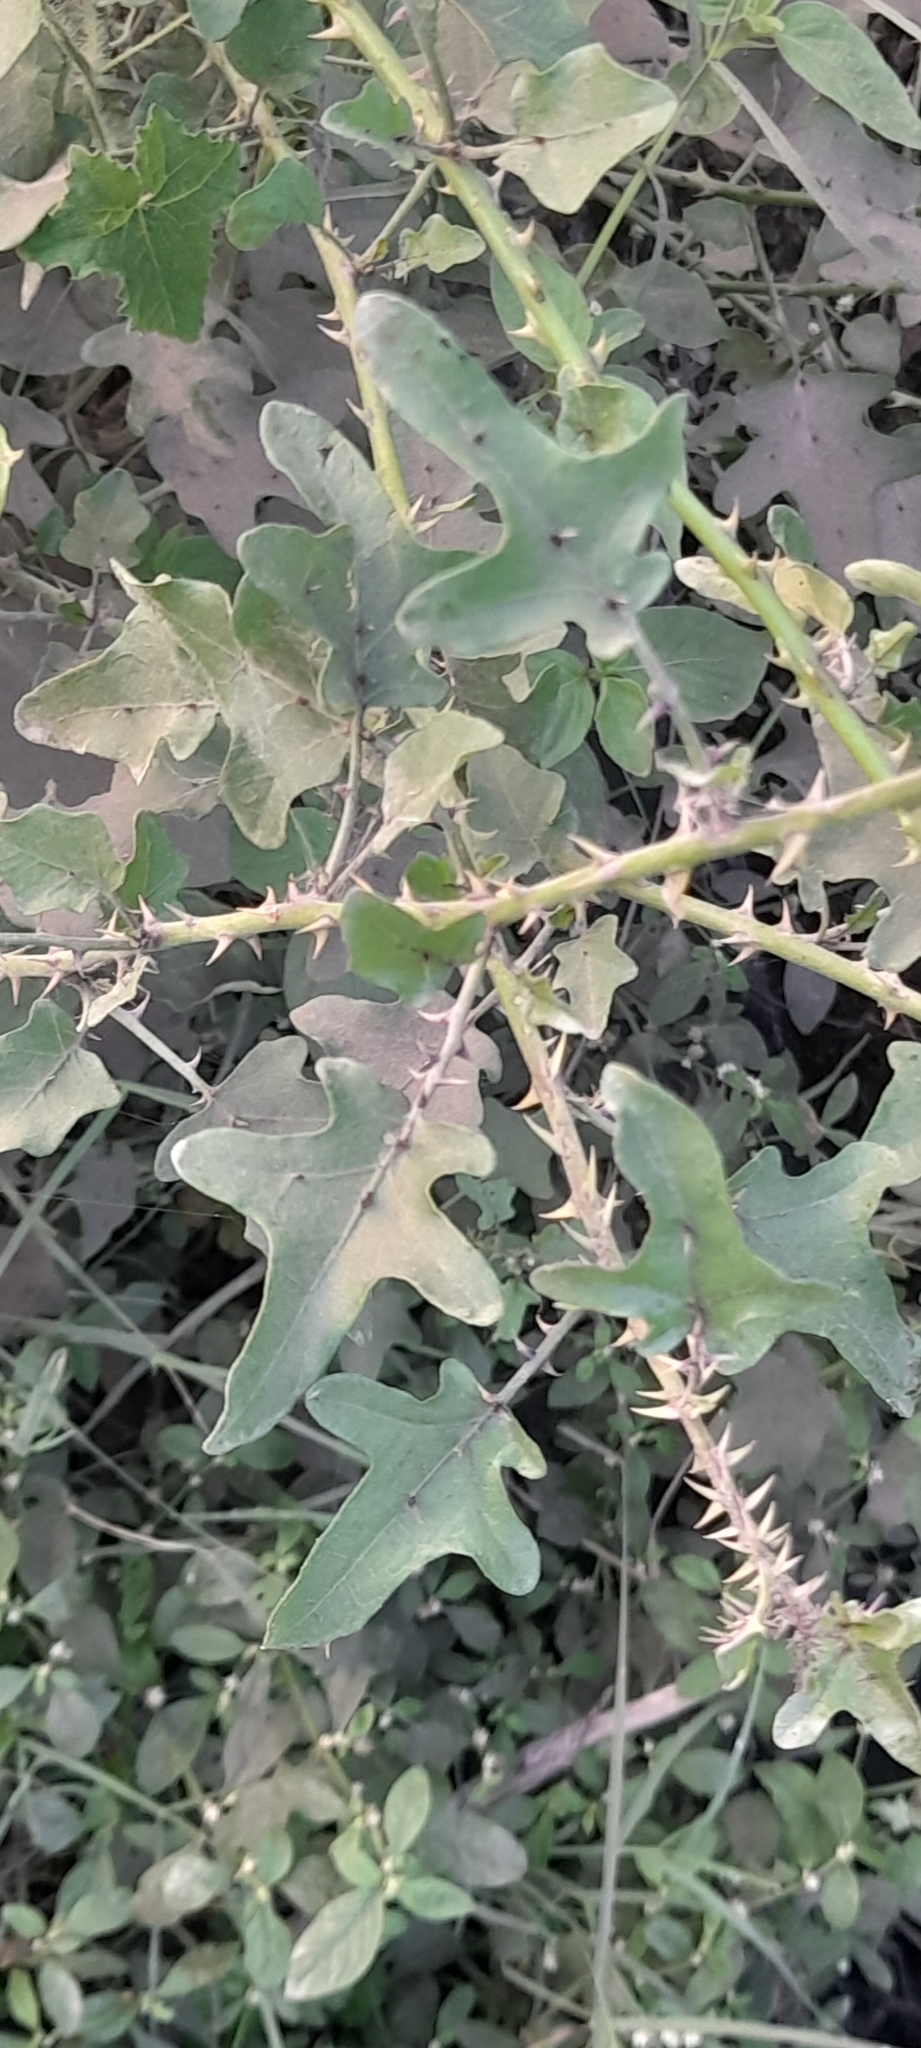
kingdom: Plantae
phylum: Tracheophyta
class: Magnoliopsida
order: Solanales
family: Solanaceae
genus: Solanum
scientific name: Solanum trilobatum
